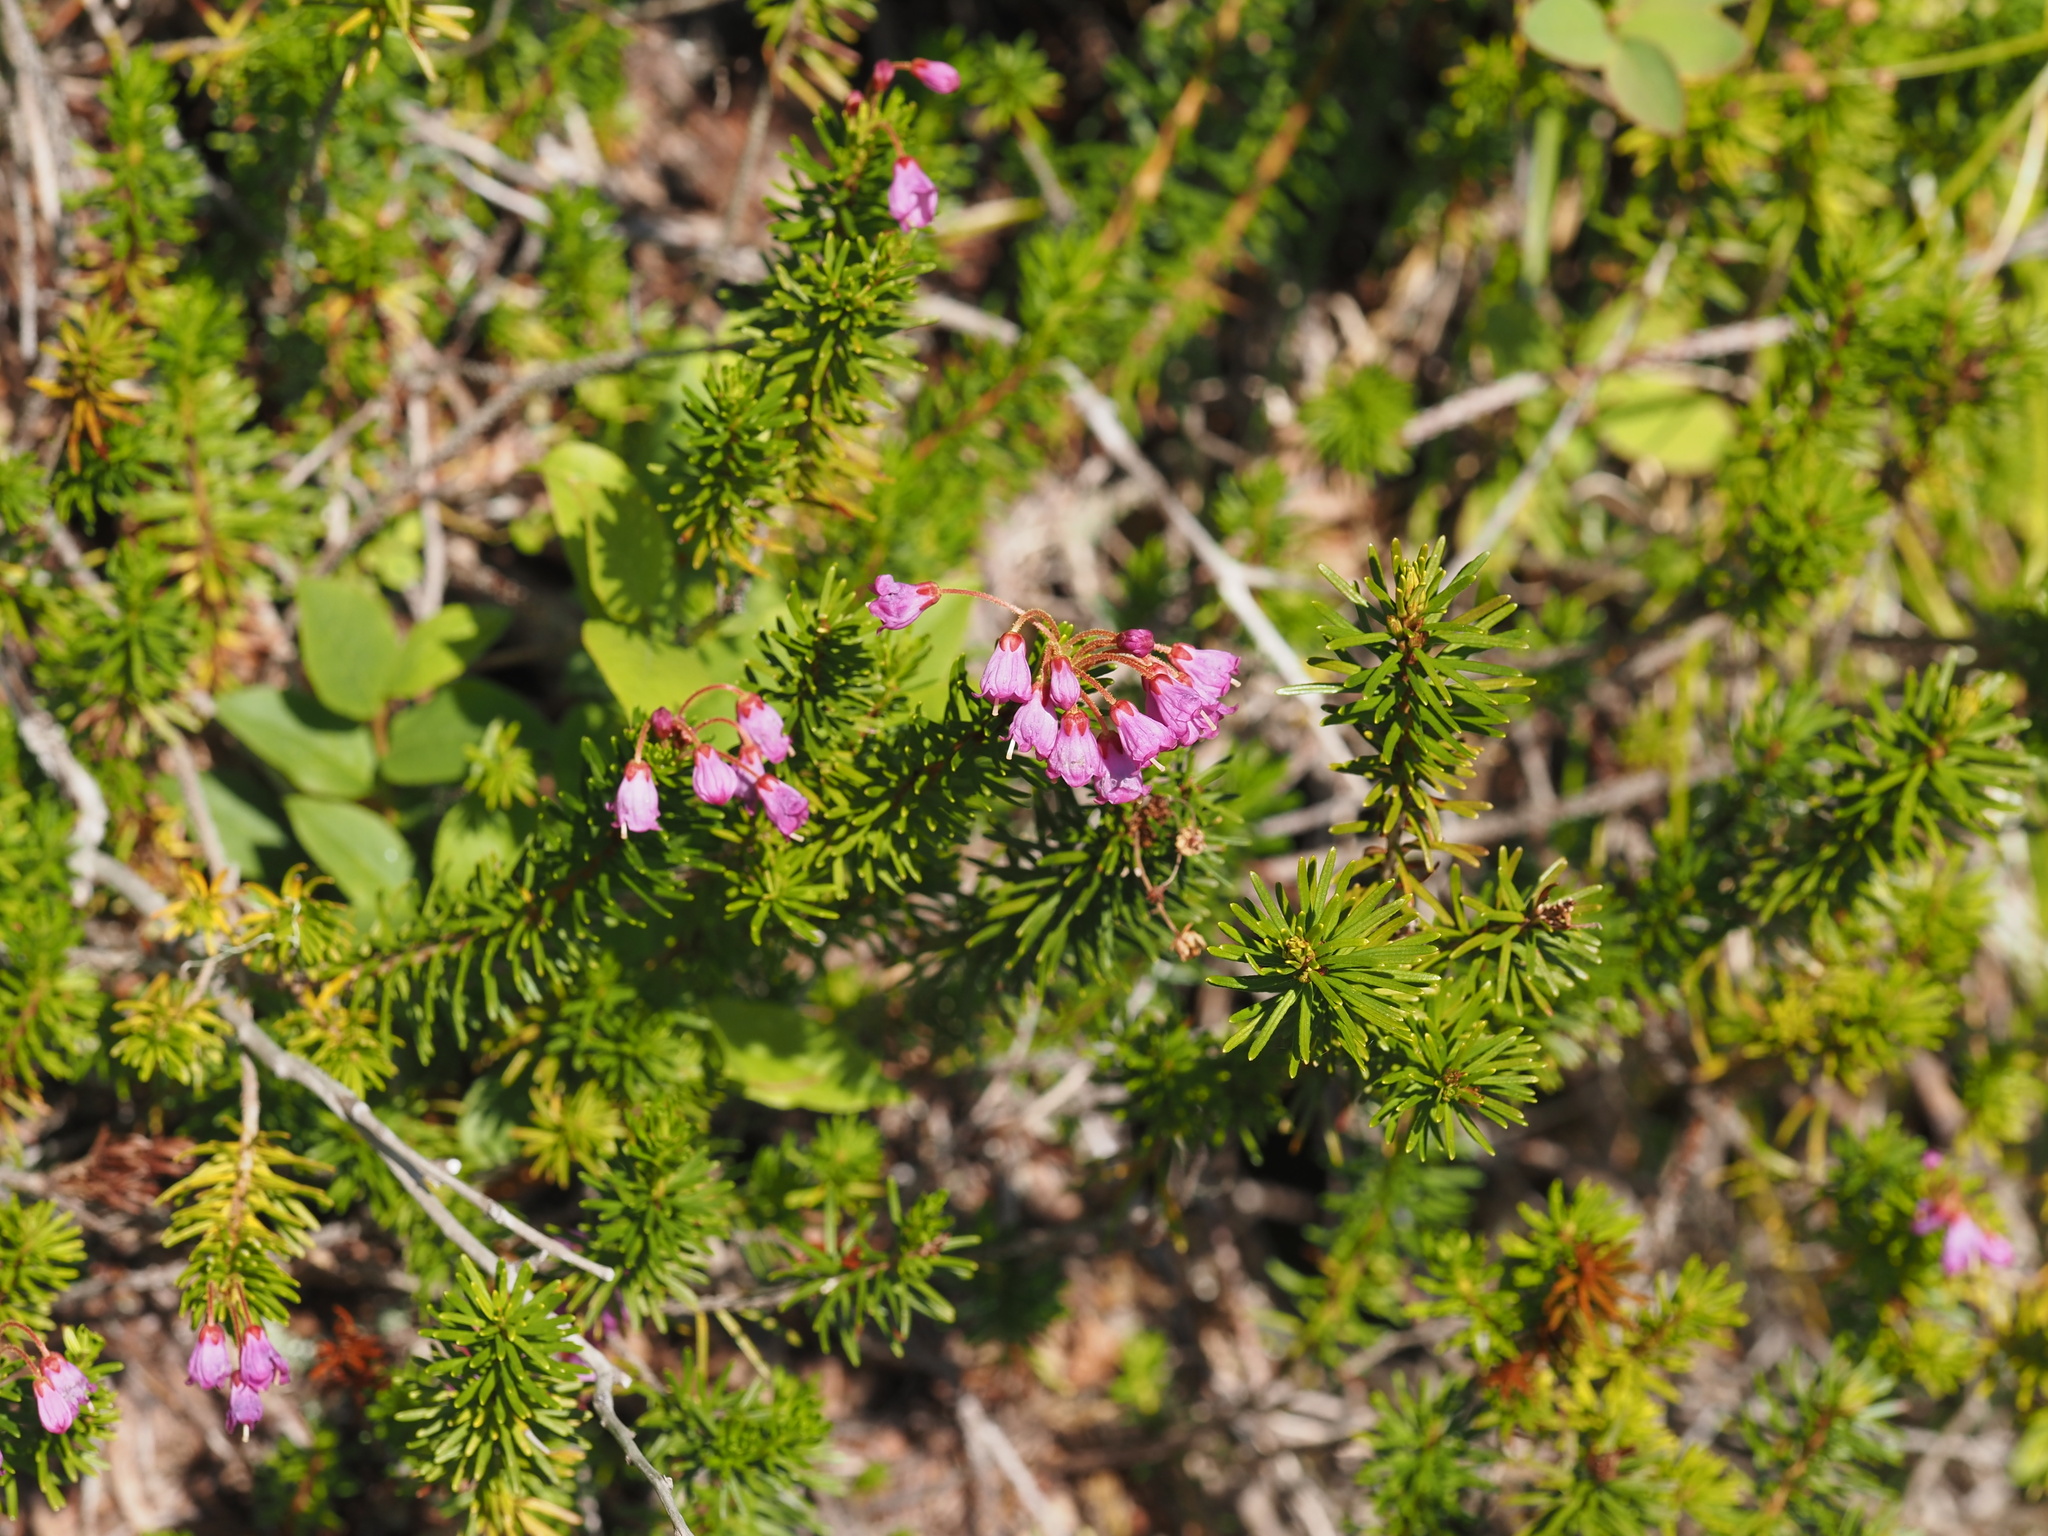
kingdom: Plantae
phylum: Tracheophyta
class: Magnoliopsida
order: Ericales
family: Ericaceae
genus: Phyllodoce
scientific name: Phyllodoce empetriformis
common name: Pink mountain heather
